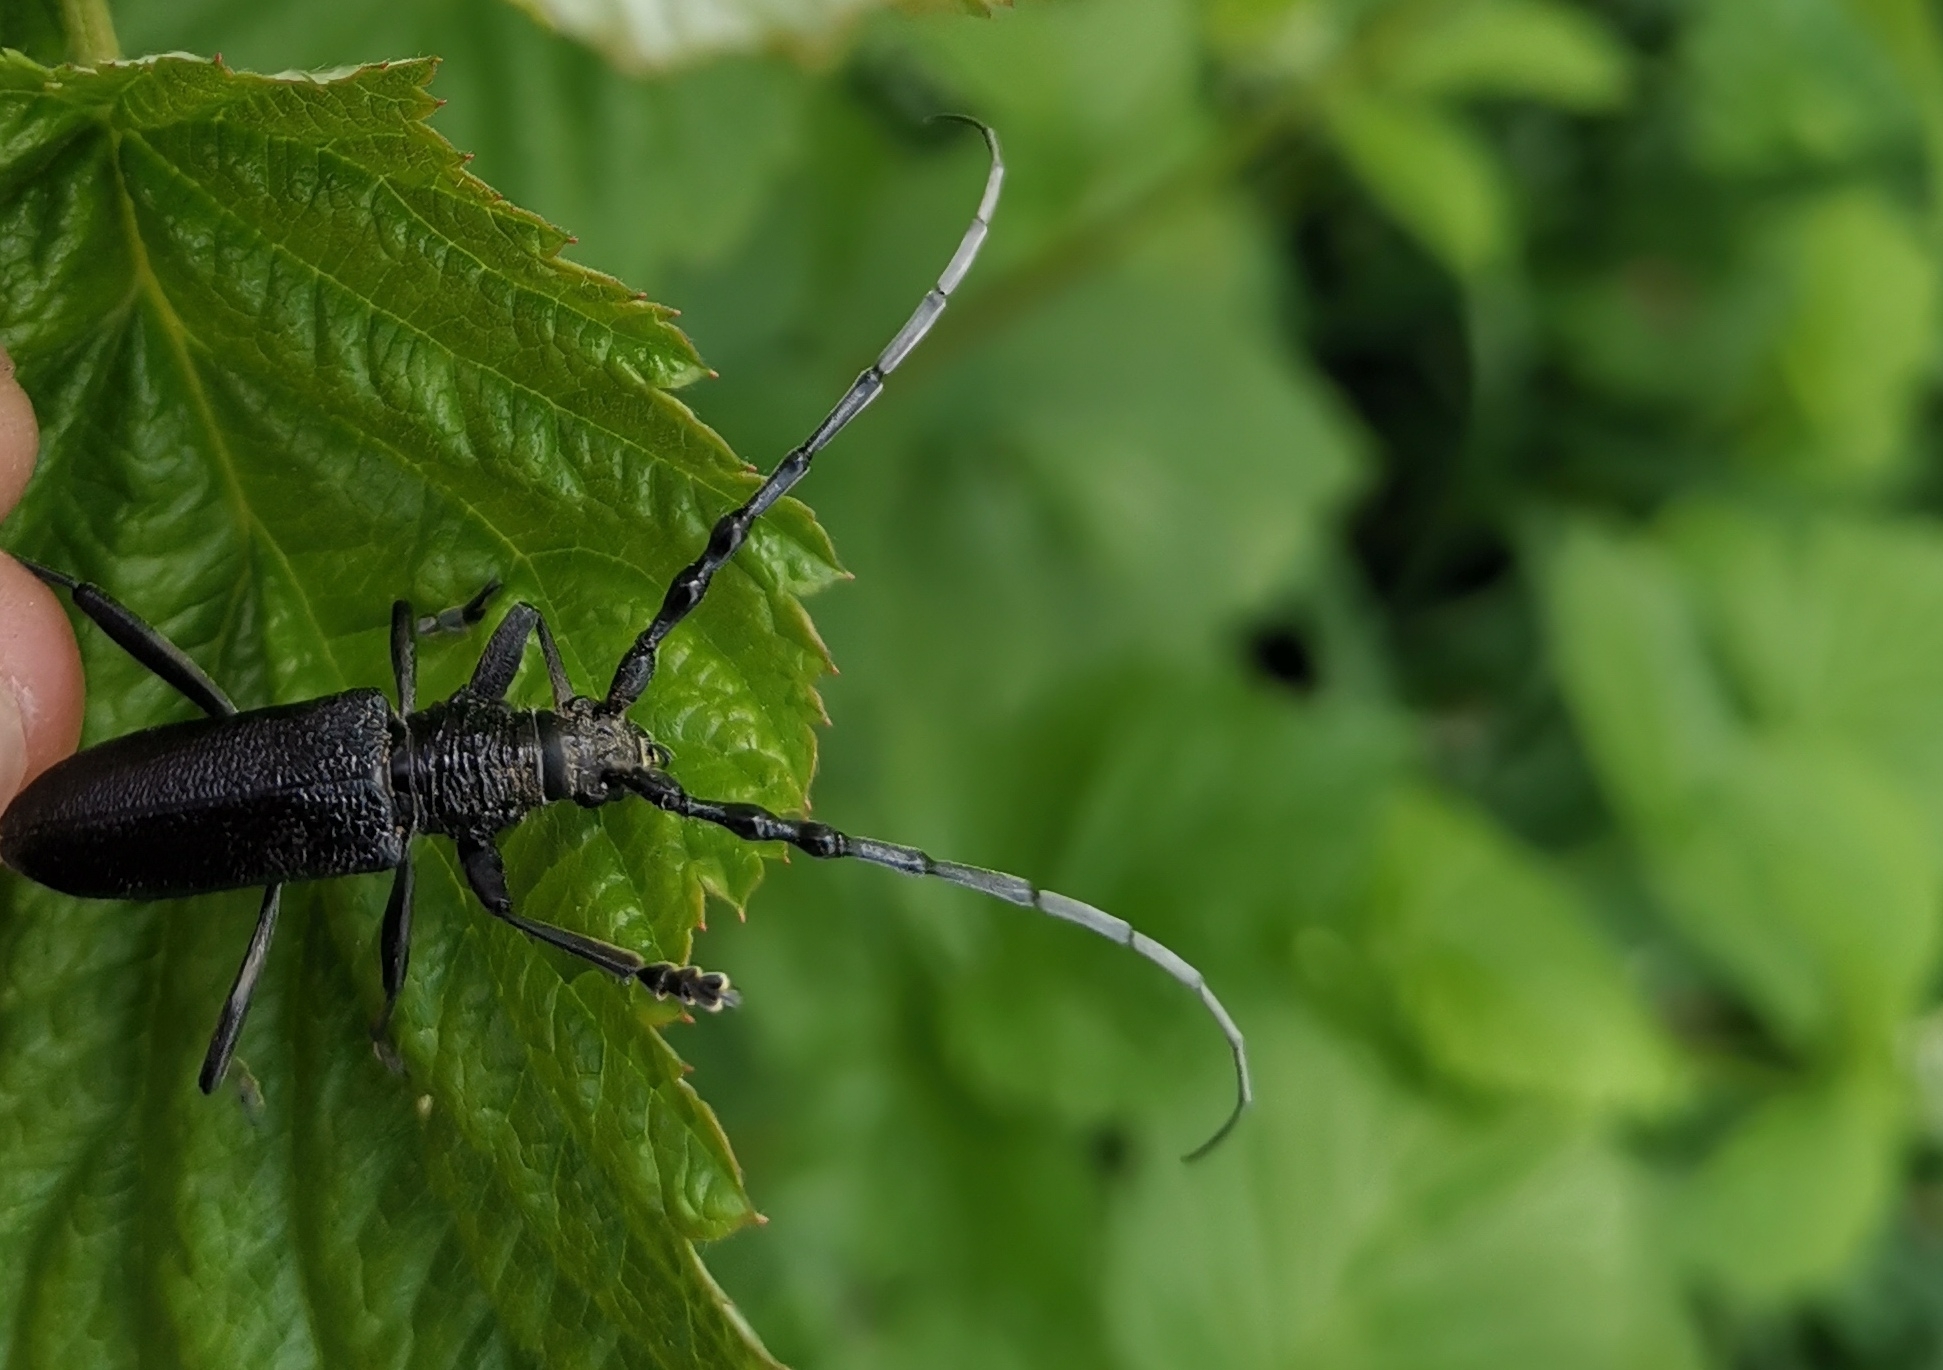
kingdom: Animalia
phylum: Arthropoda
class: Insecta
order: Coleoptera
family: Cerambycidae
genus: Cerambyx
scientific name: Cerambyx scopolii
